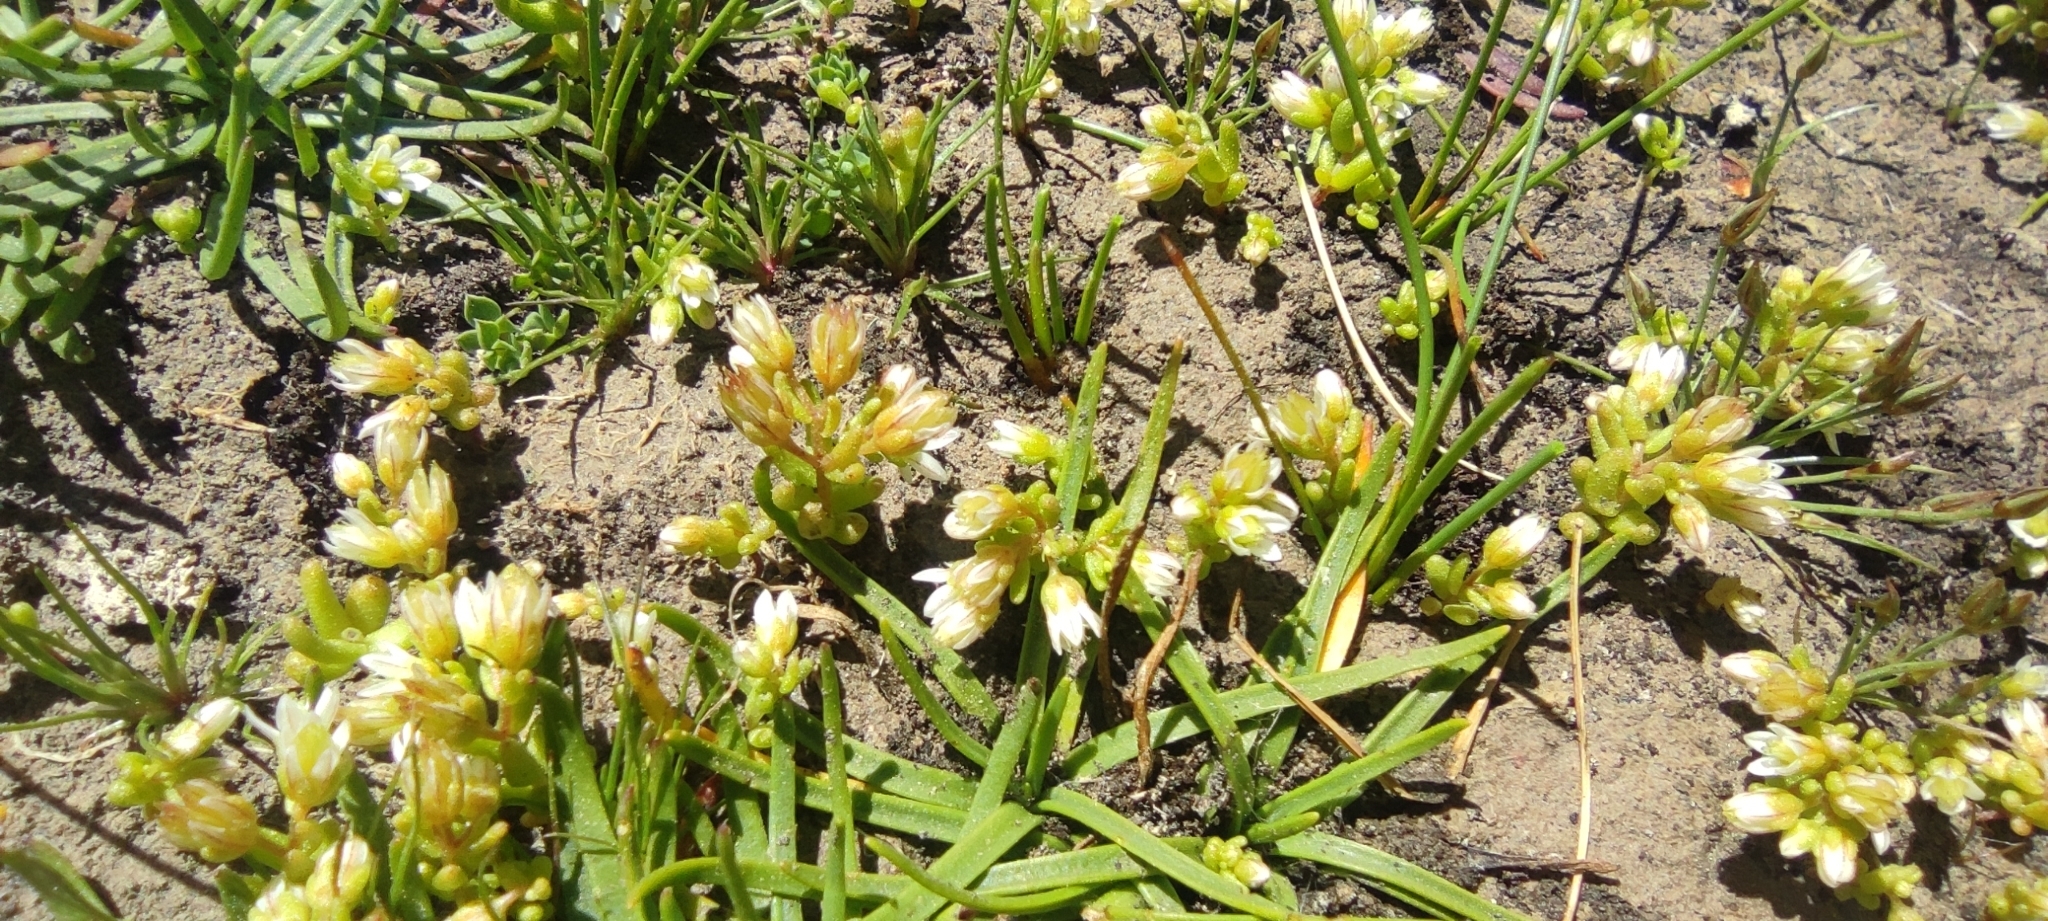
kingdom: Plantae
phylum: Tracheophyta
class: Magnoliopsida
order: Saxifragales
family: Crassulaceae
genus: Sedum
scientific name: Sedum nevadense
